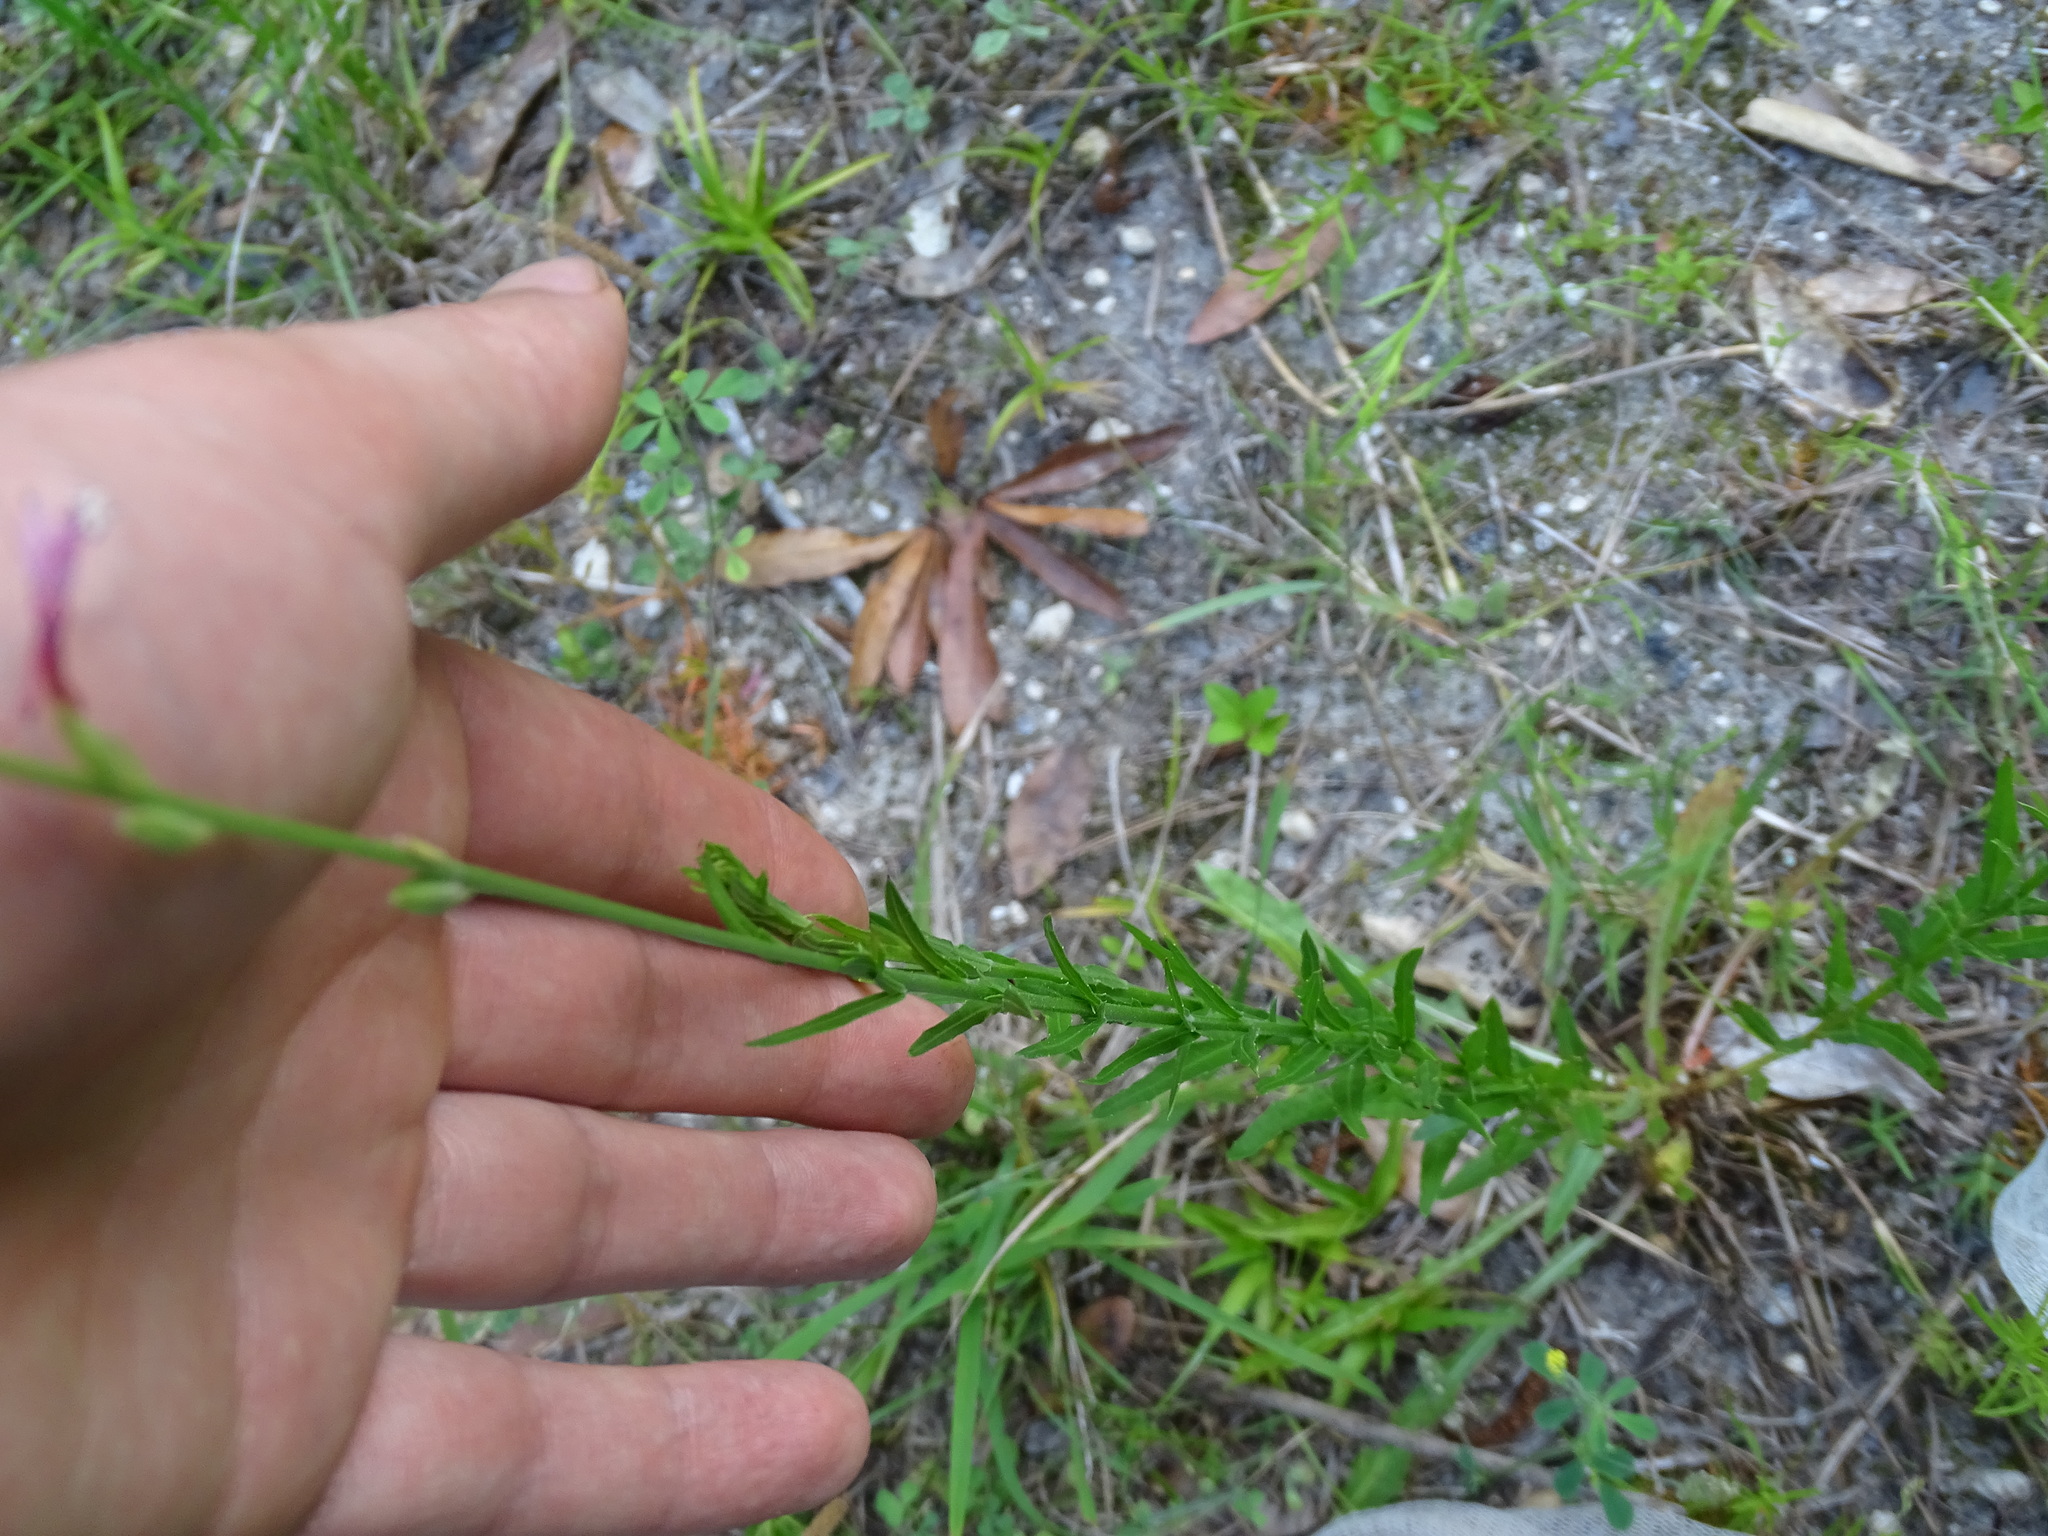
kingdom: Plantae
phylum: Tracheophyta
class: Magnoliopsida
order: Myrtales
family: Onagraceae
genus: Oenothera
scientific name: Oenothera simulans
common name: Southern beeblossom
